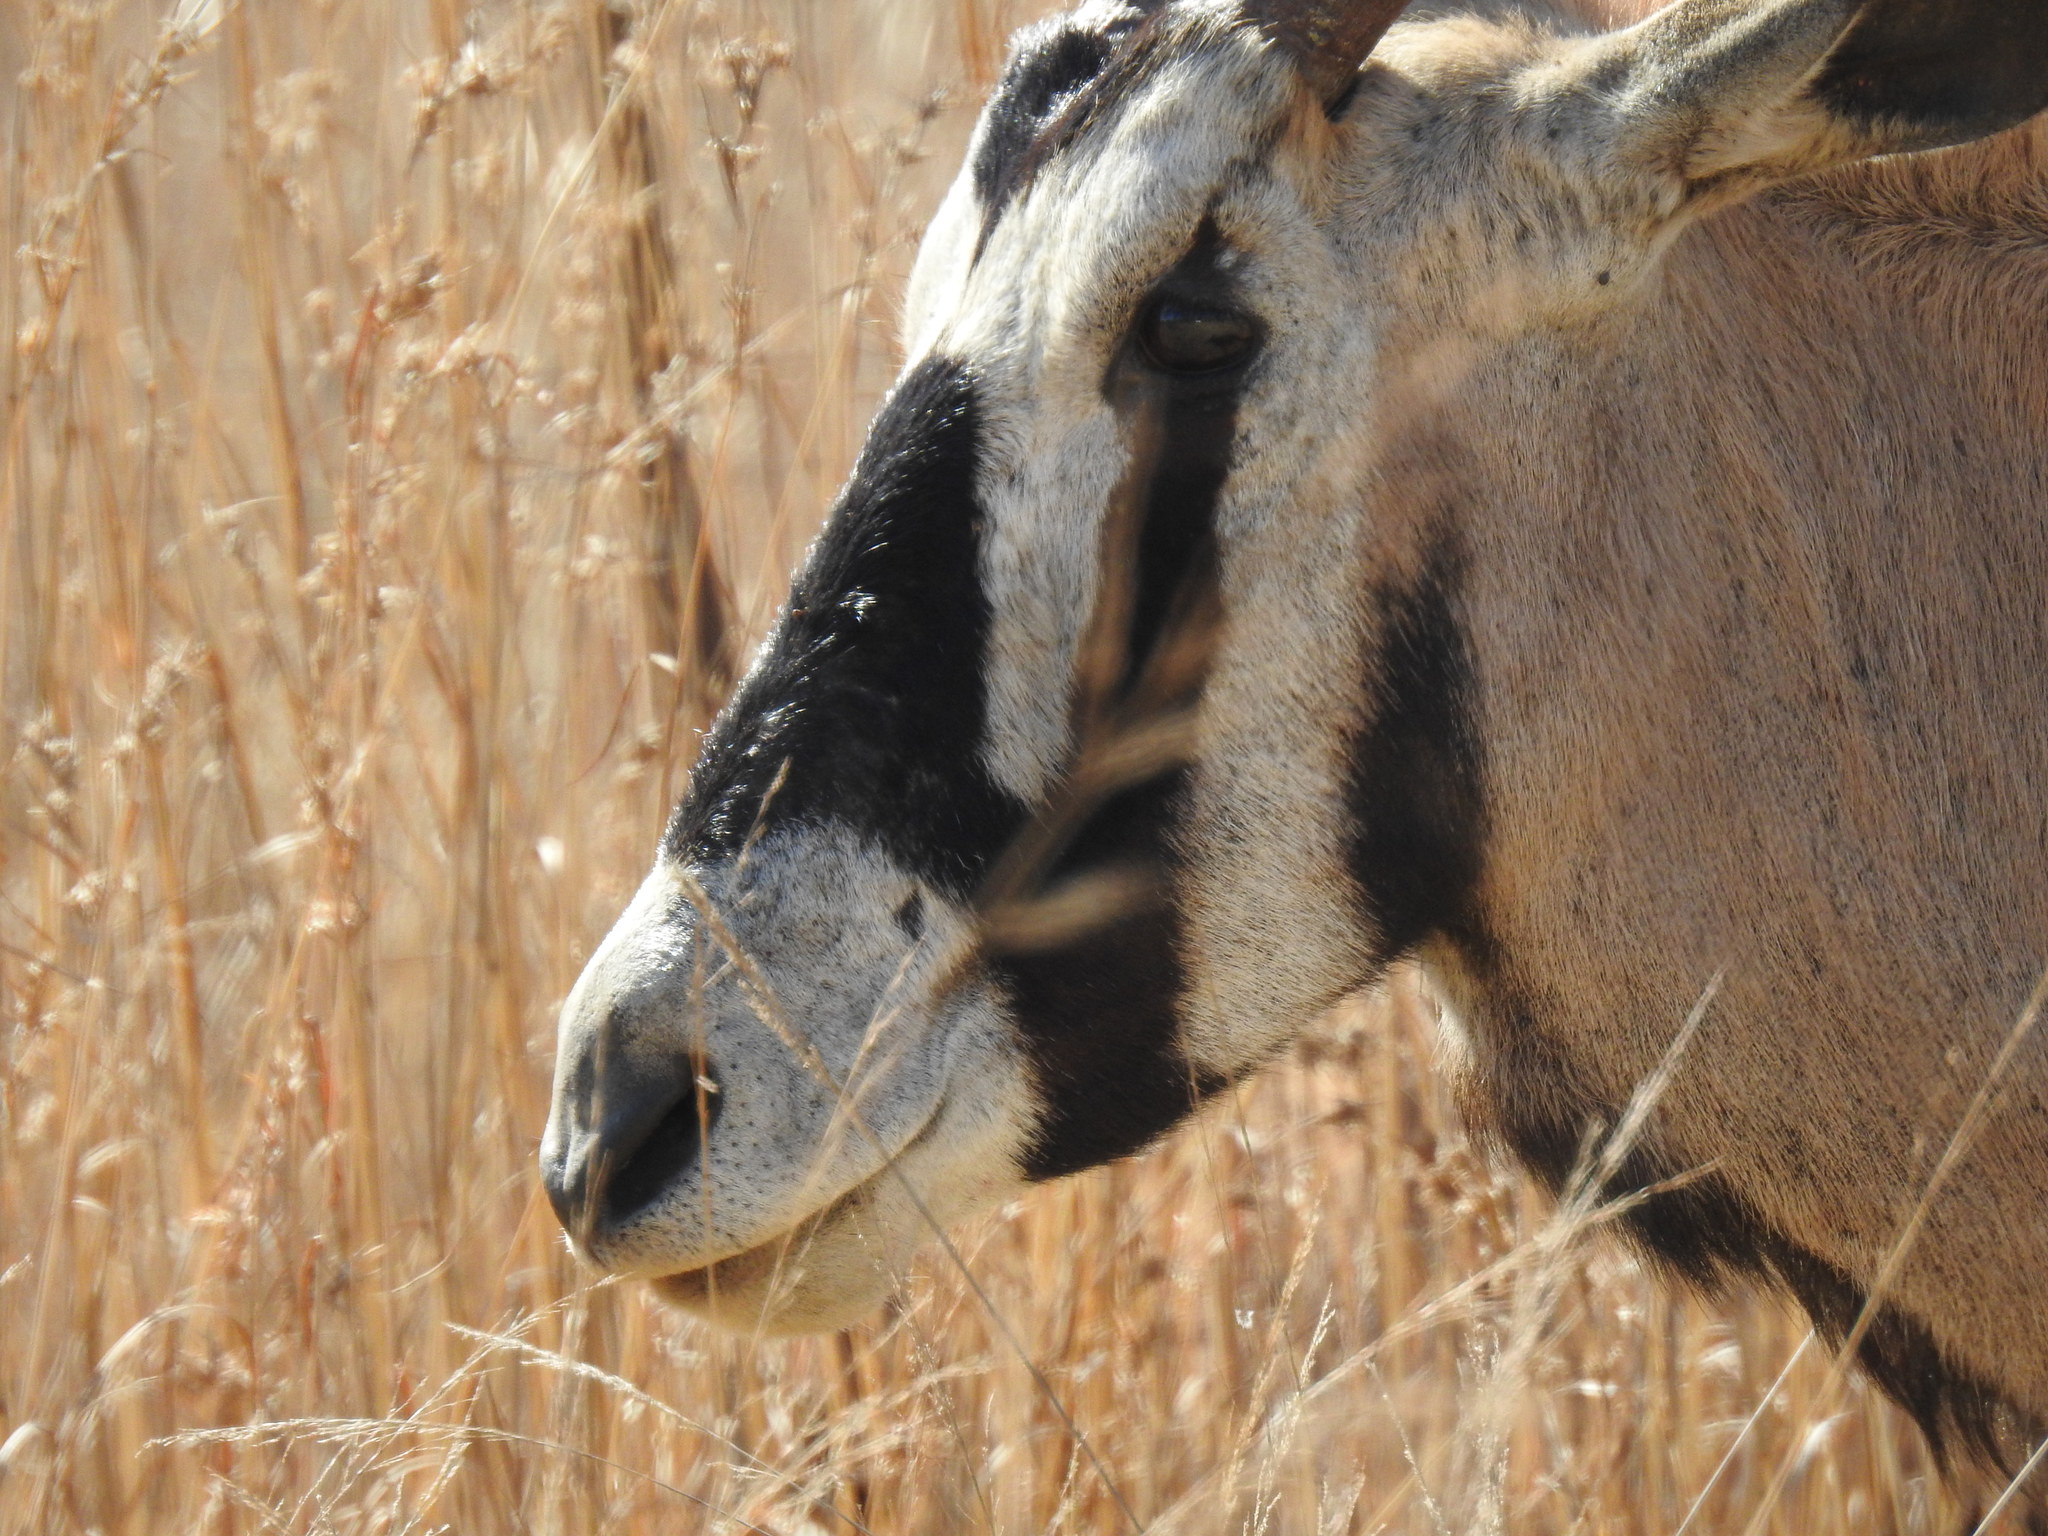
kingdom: Animalia
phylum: Chordata
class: Mammalia
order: Artiodactyla
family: Bovidae
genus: Oryx
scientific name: Oryx gazella
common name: Gemsbok
